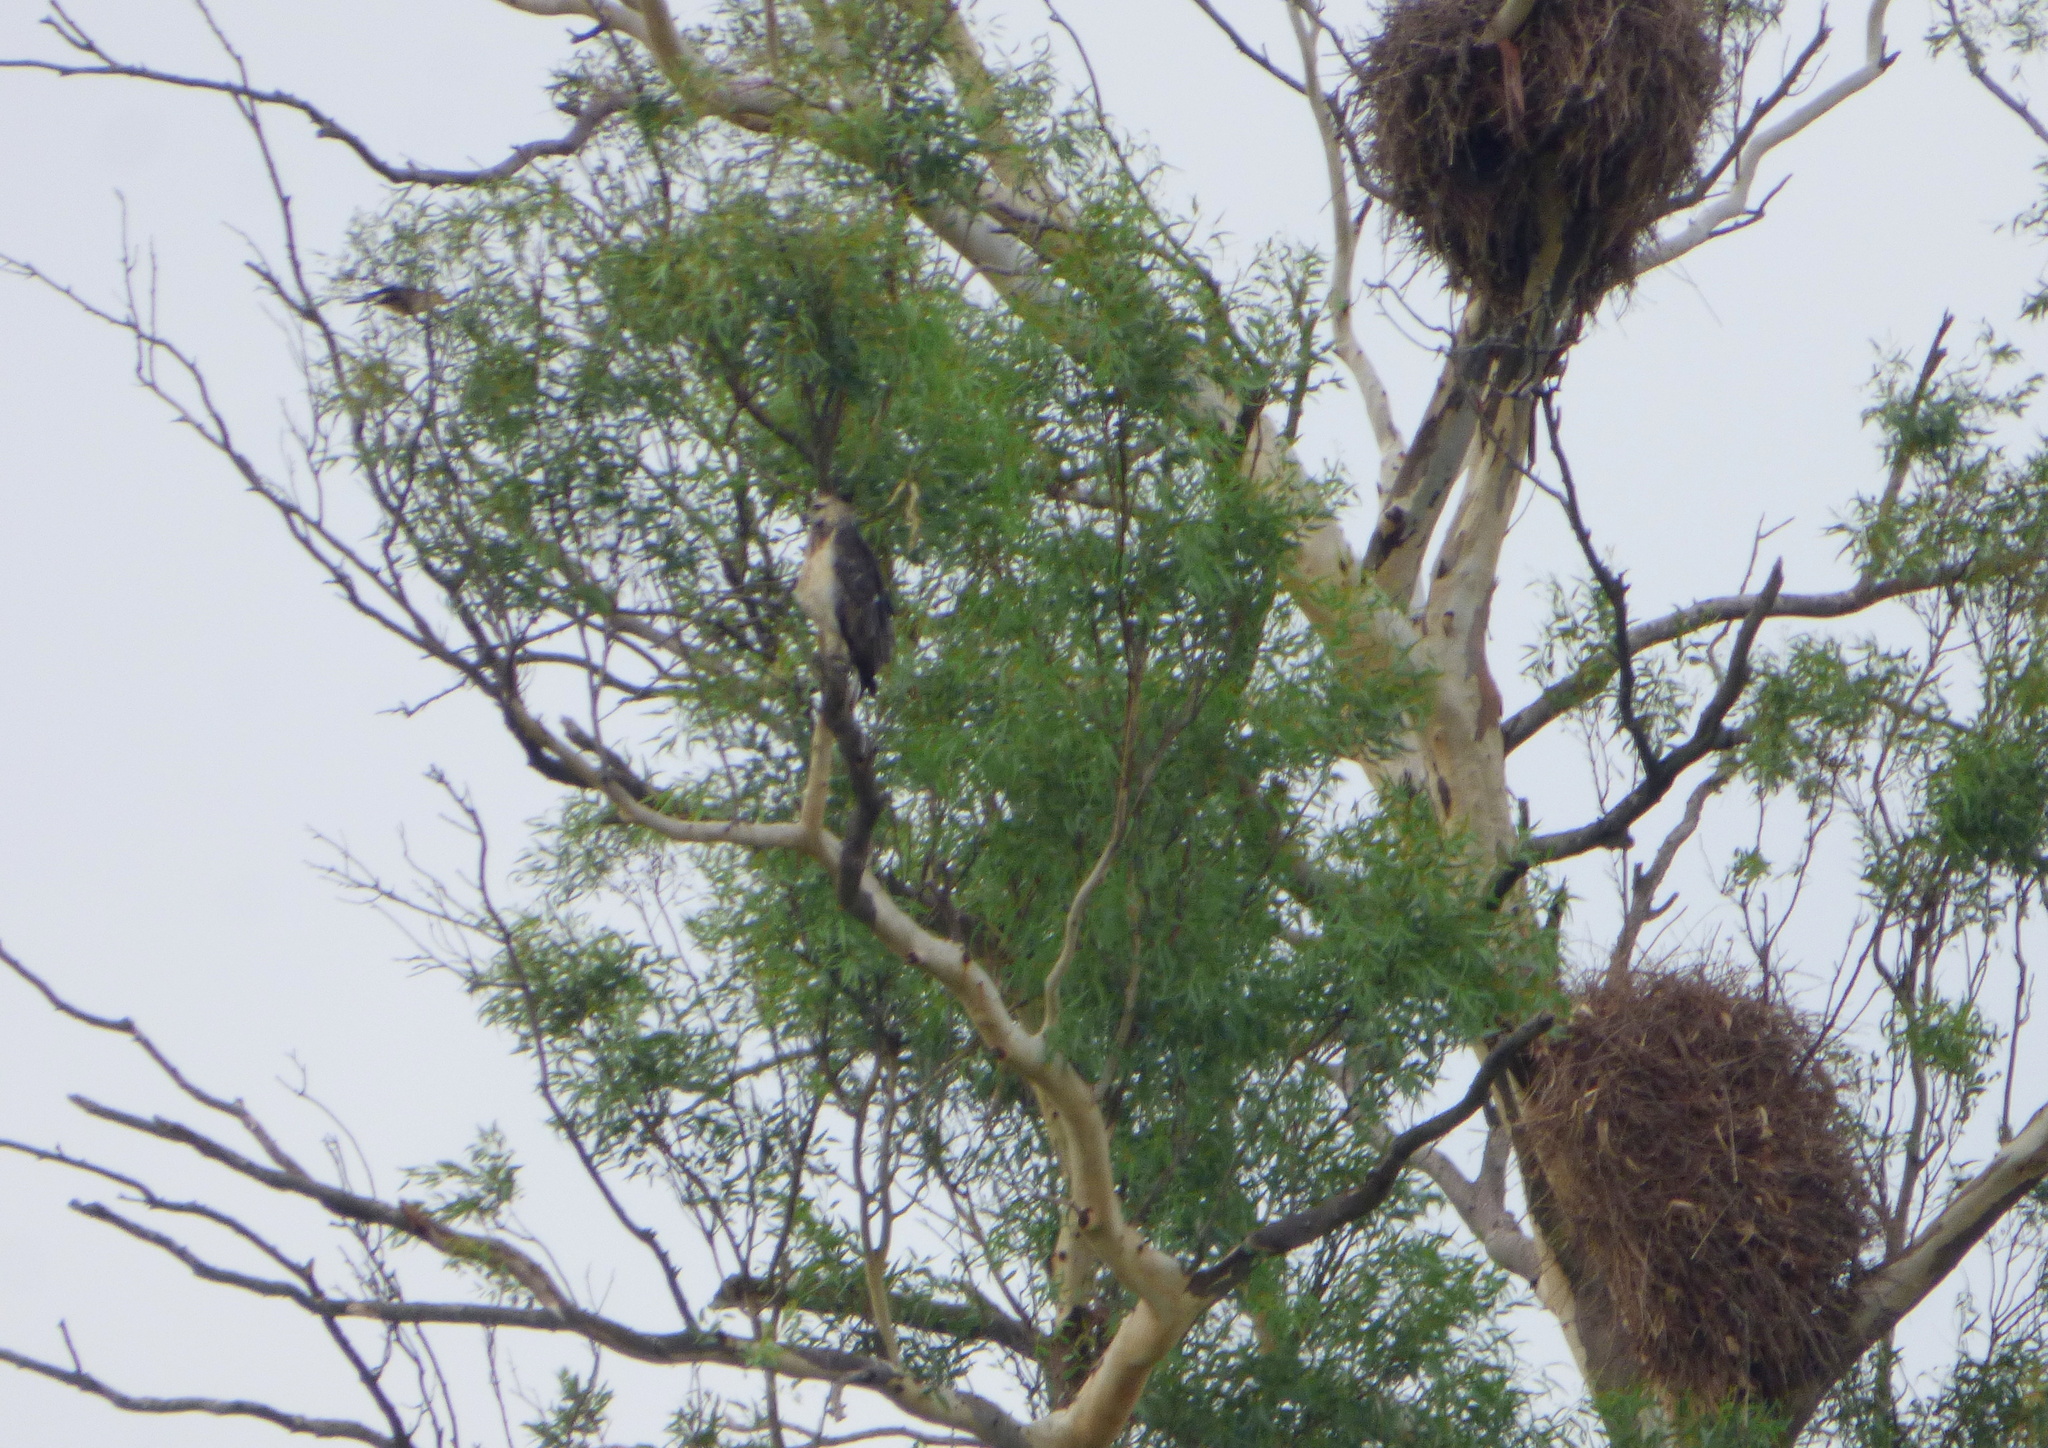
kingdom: Animalia
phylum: Chordata
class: Aves
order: Accipitriformes
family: Accipitridae
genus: Harpyhaliaetus
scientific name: Harpyhaliaetus coronatus
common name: Crowned solitary eagle
